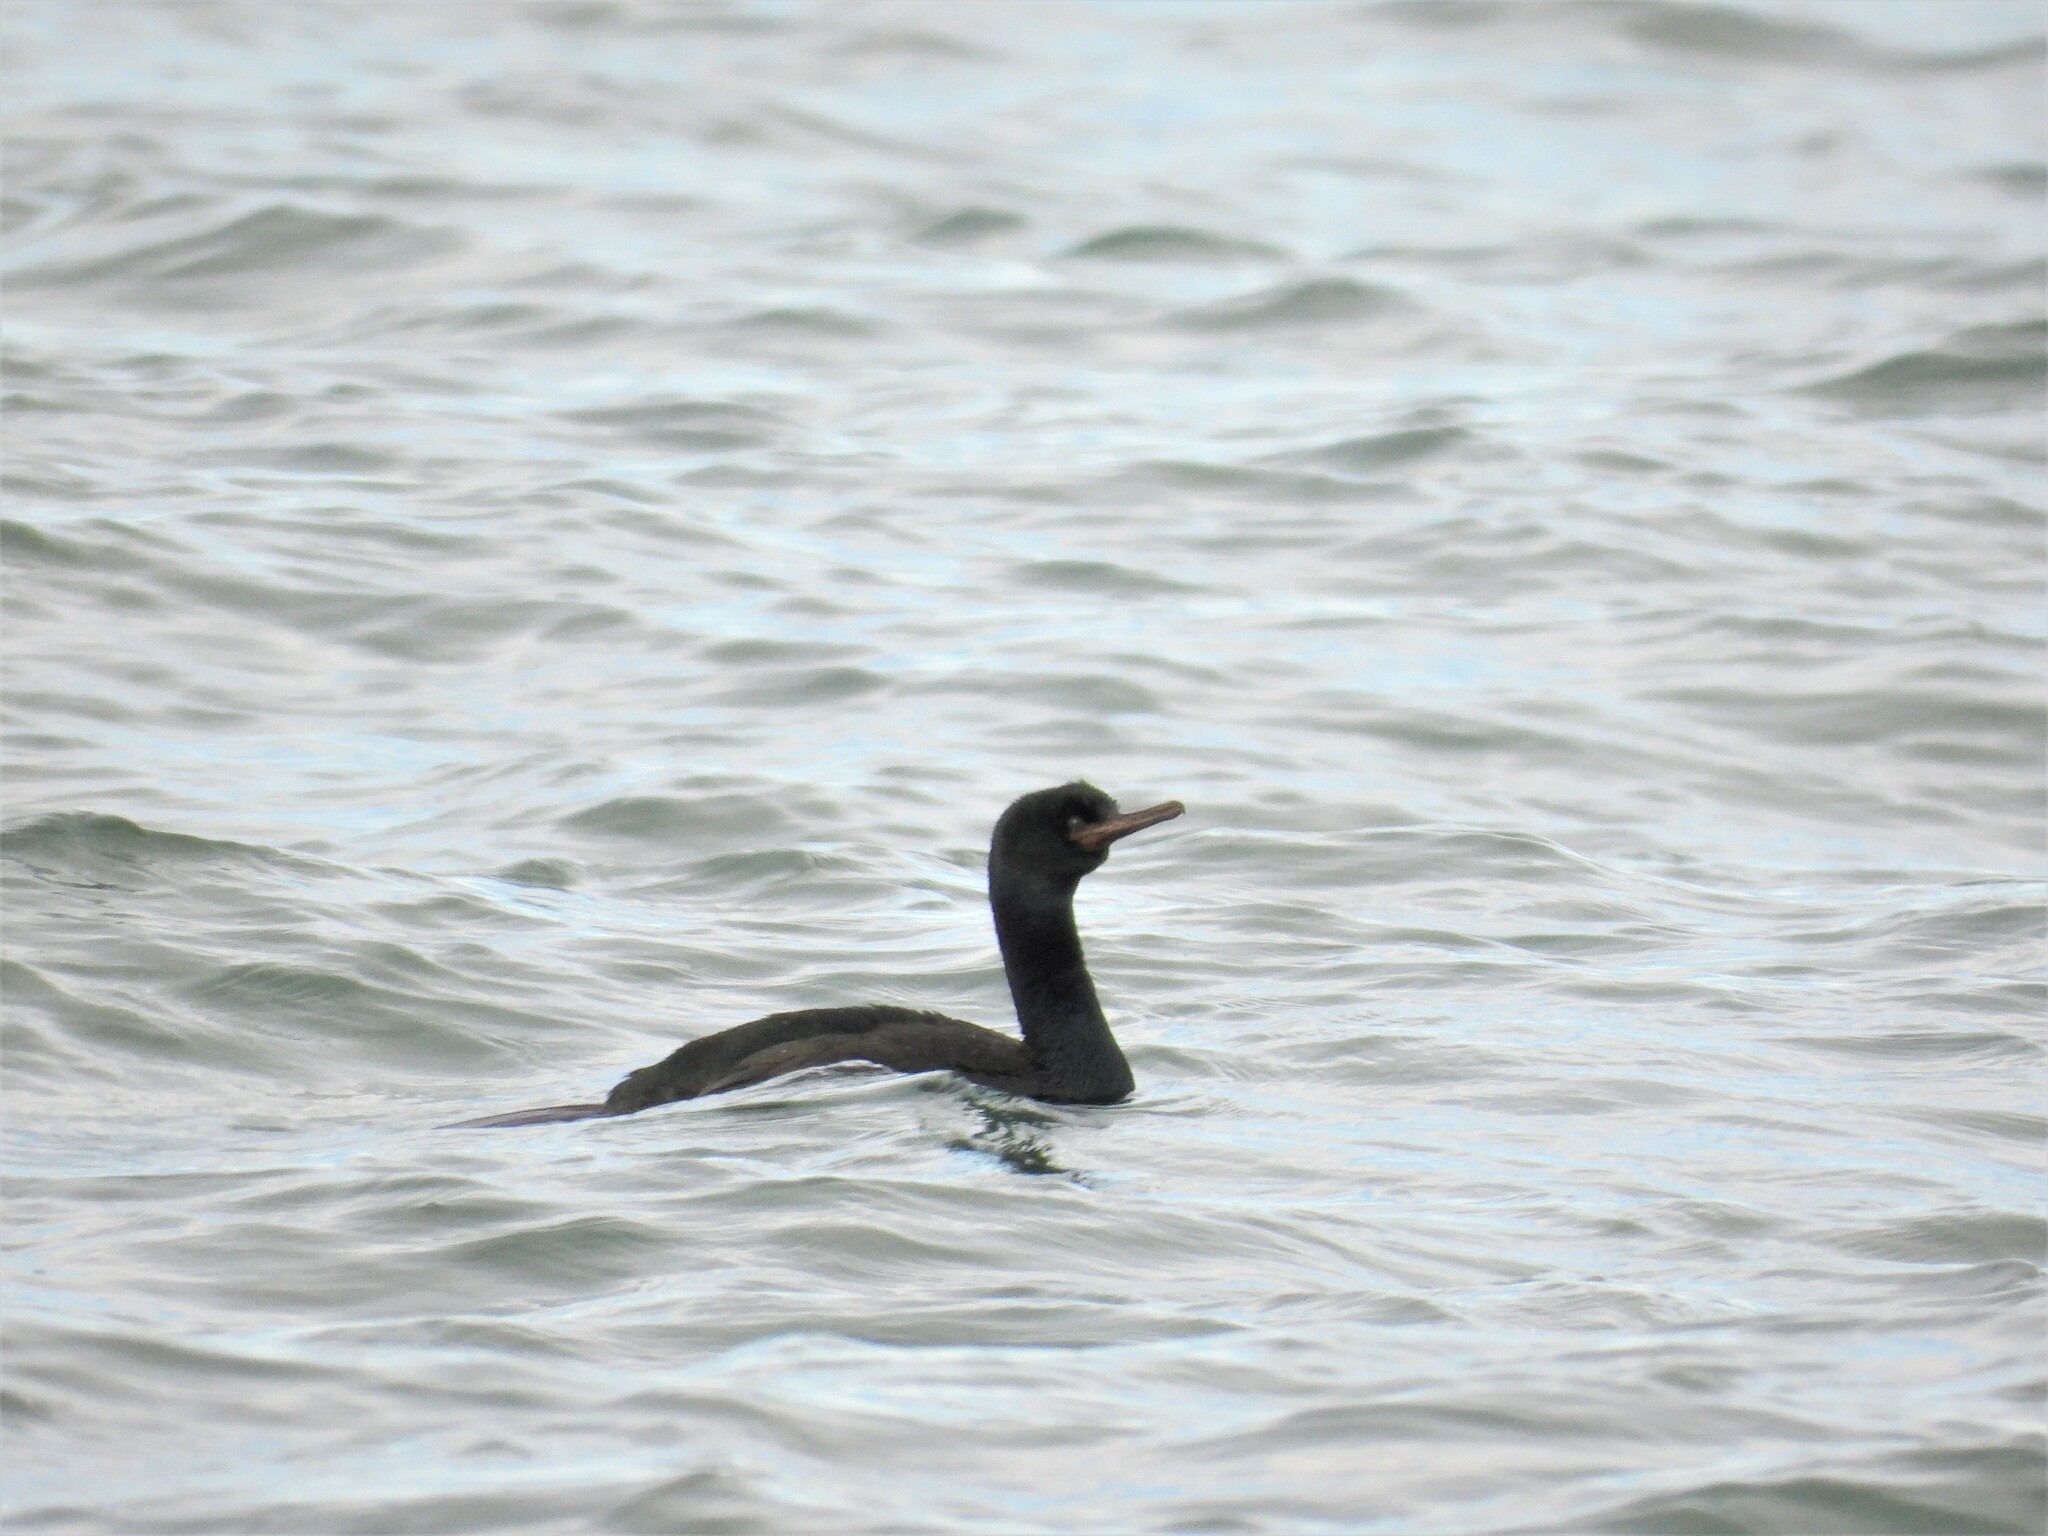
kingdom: Animalia
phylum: Chordata
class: Aves
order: Suliformes
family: Phalacrocoracidae
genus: Phalacrocorax
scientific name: Phalacrocorax pelagicus
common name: Pelagic cormorant
